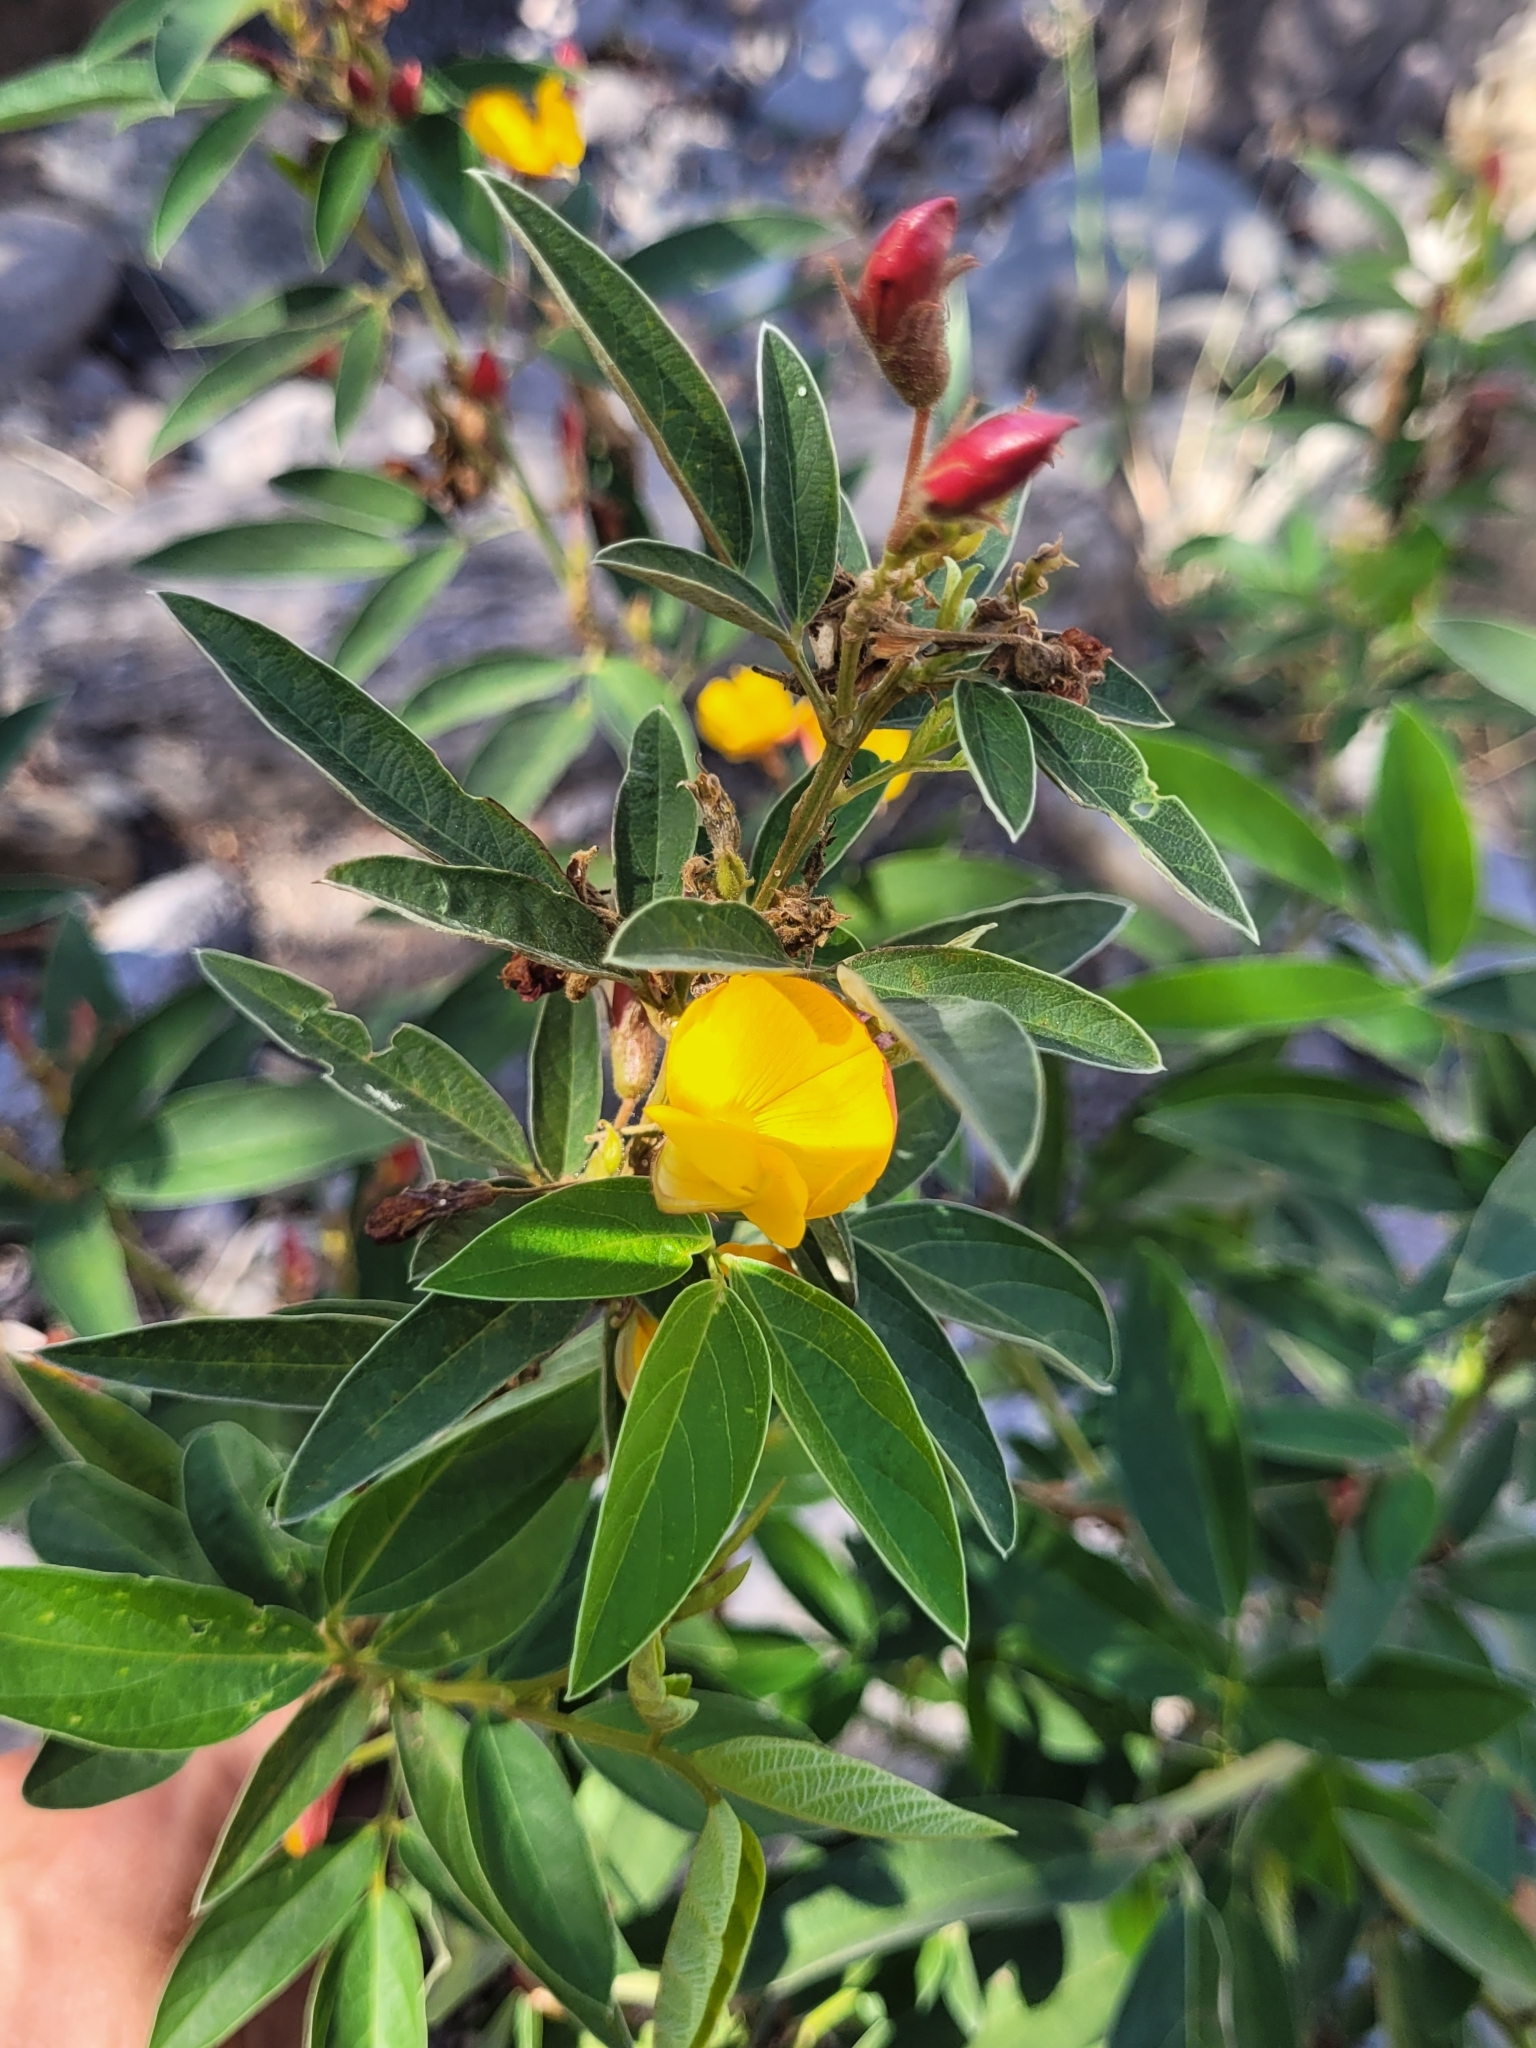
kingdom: Plantae
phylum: Tracheophyta
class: Magnoliopsida
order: Fabales
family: Fabaceae
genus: Cajanus
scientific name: Cajanus cajan
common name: Pigeonpea
